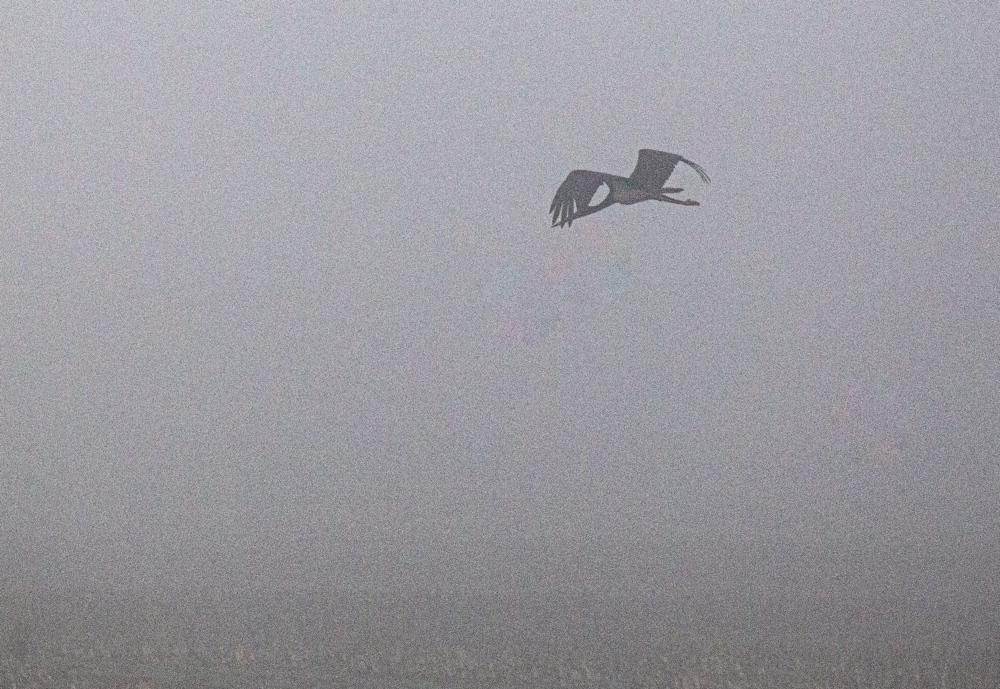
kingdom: Animalia
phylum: Chordata
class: Aves
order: Ciconiiformes
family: Ciconiidae
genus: Ciconia
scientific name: Ciconia nigra
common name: Black stork
